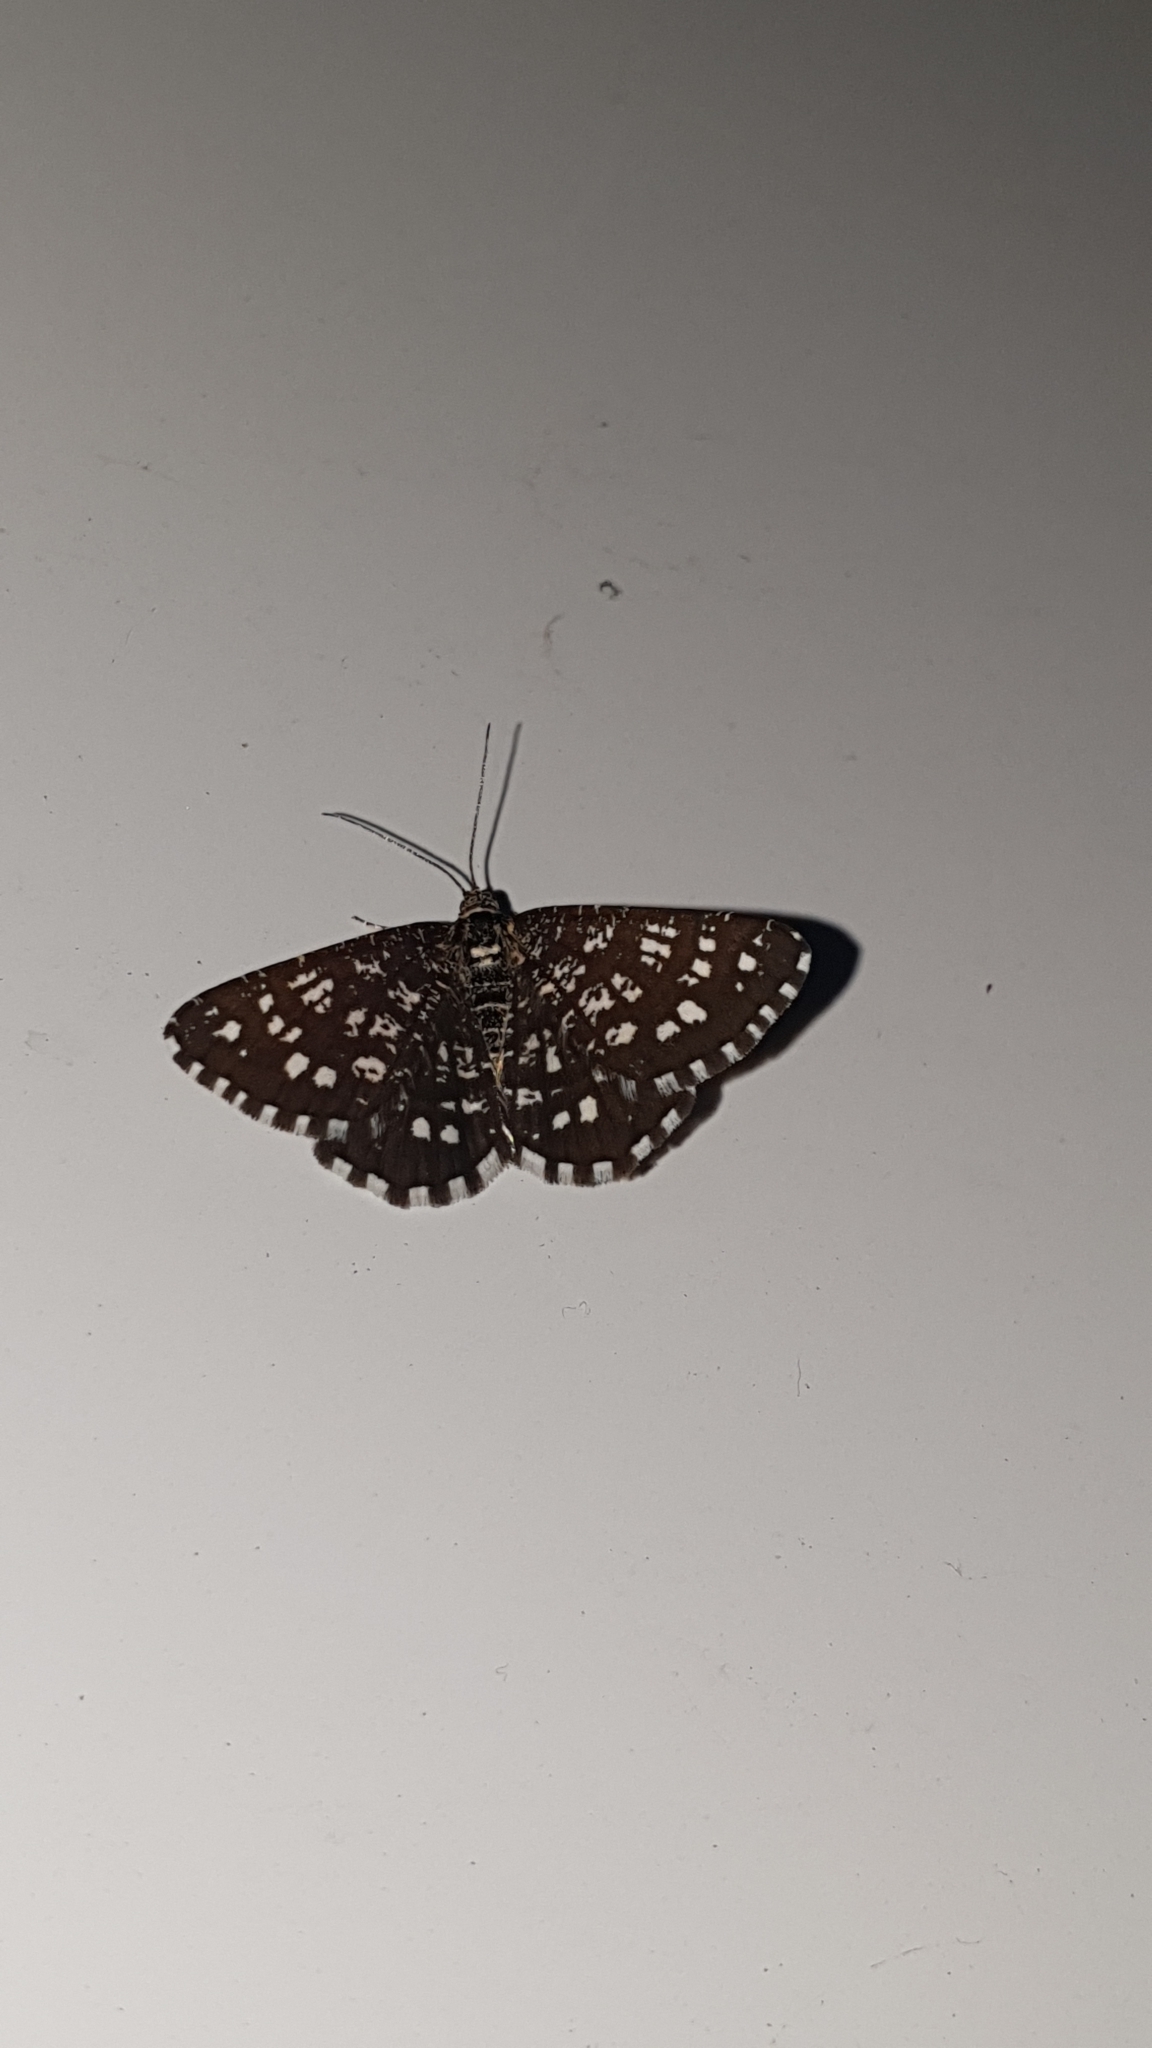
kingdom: Animalia
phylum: Arthropoda
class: Insecta
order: Lepidoptera
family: Geometridae
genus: Chiasmia
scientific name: Chiasmia clathrata
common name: Latticed heath
